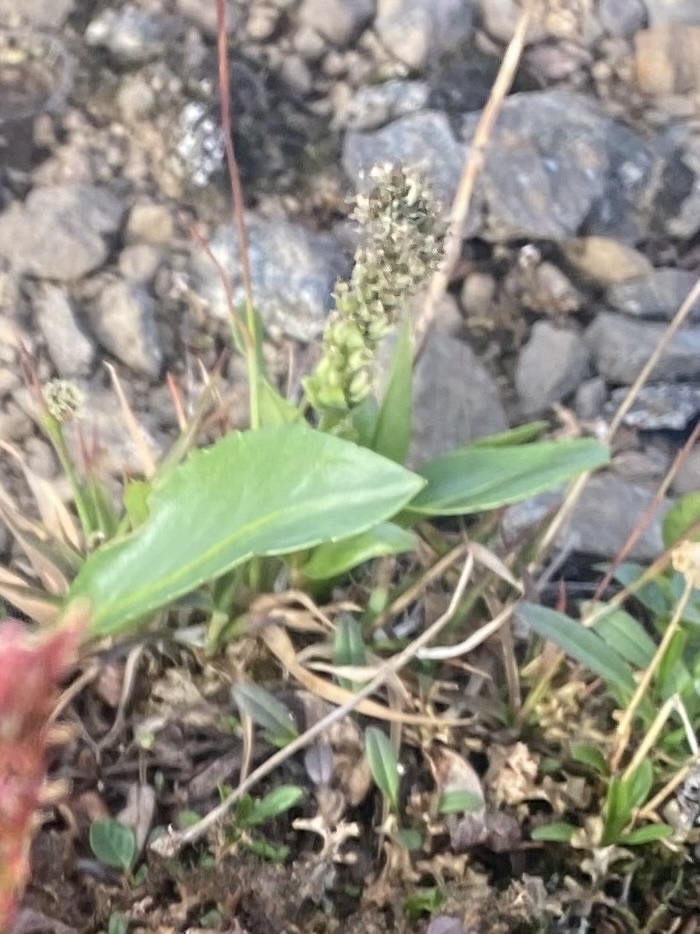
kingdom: Plantae
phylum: Tracheophyta
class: Magnoliopsida
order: Lamiales
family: Plantaginaceae
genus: Lagotis
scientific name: Lagotis glauca
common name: Glaucous weaselsnout
